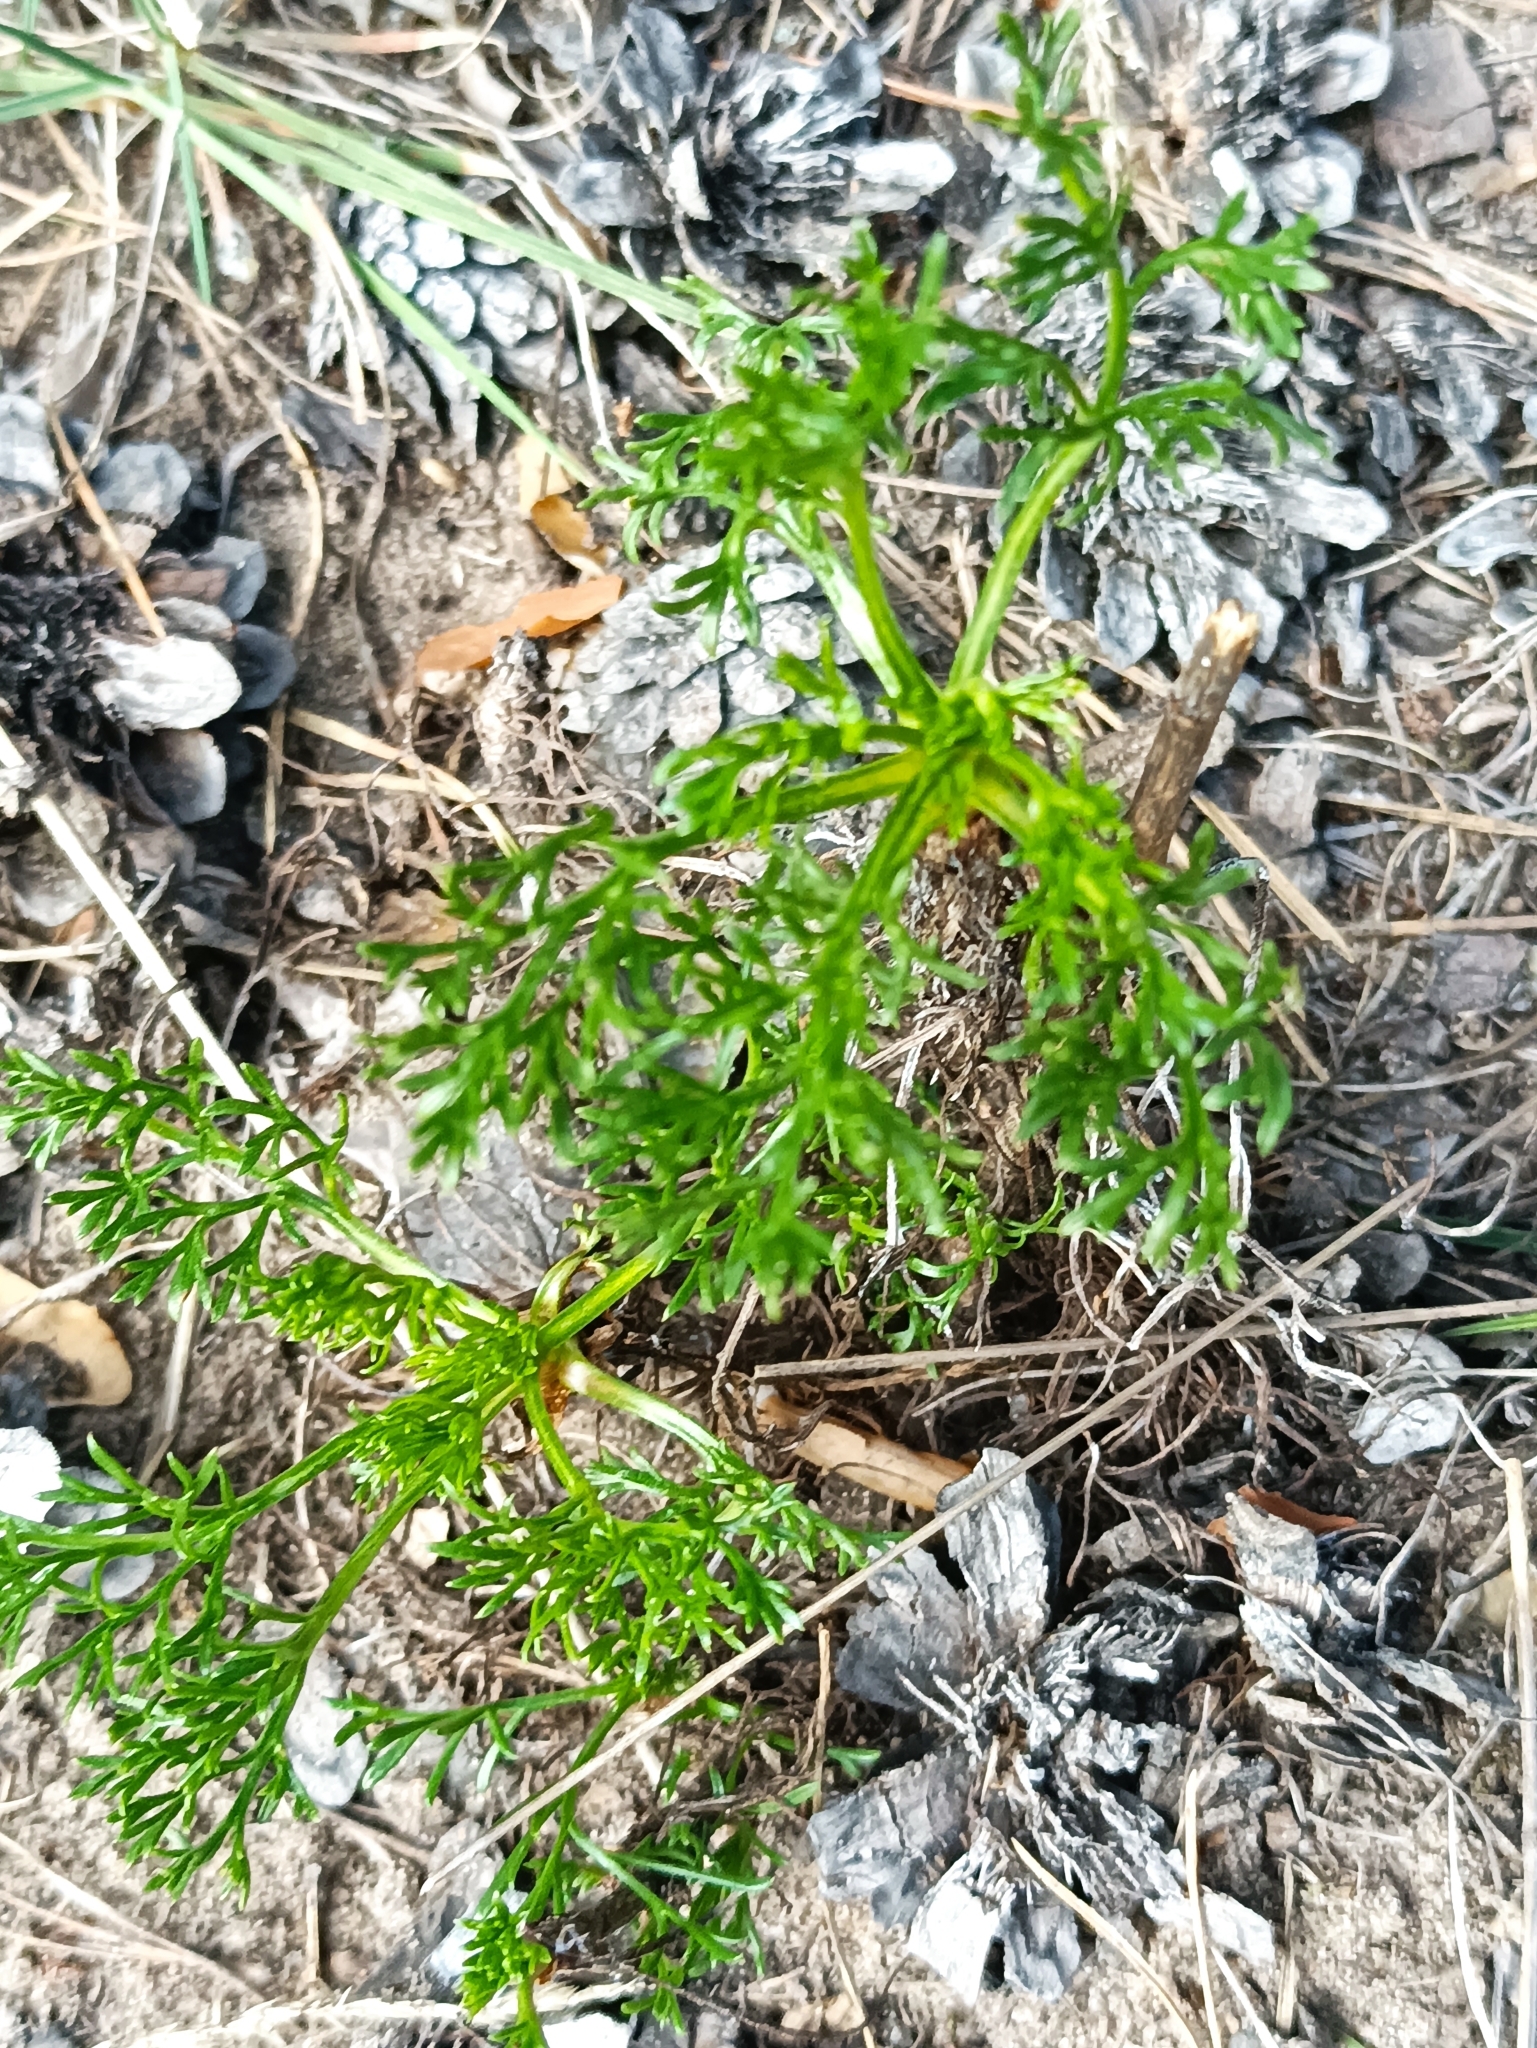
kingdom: Plantae
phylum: Tracheophyta
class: Magnoliopsida
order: Asterales
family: Asteraceae
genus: Artemisia
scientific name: Artemisia campestris
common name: Field wormwood
